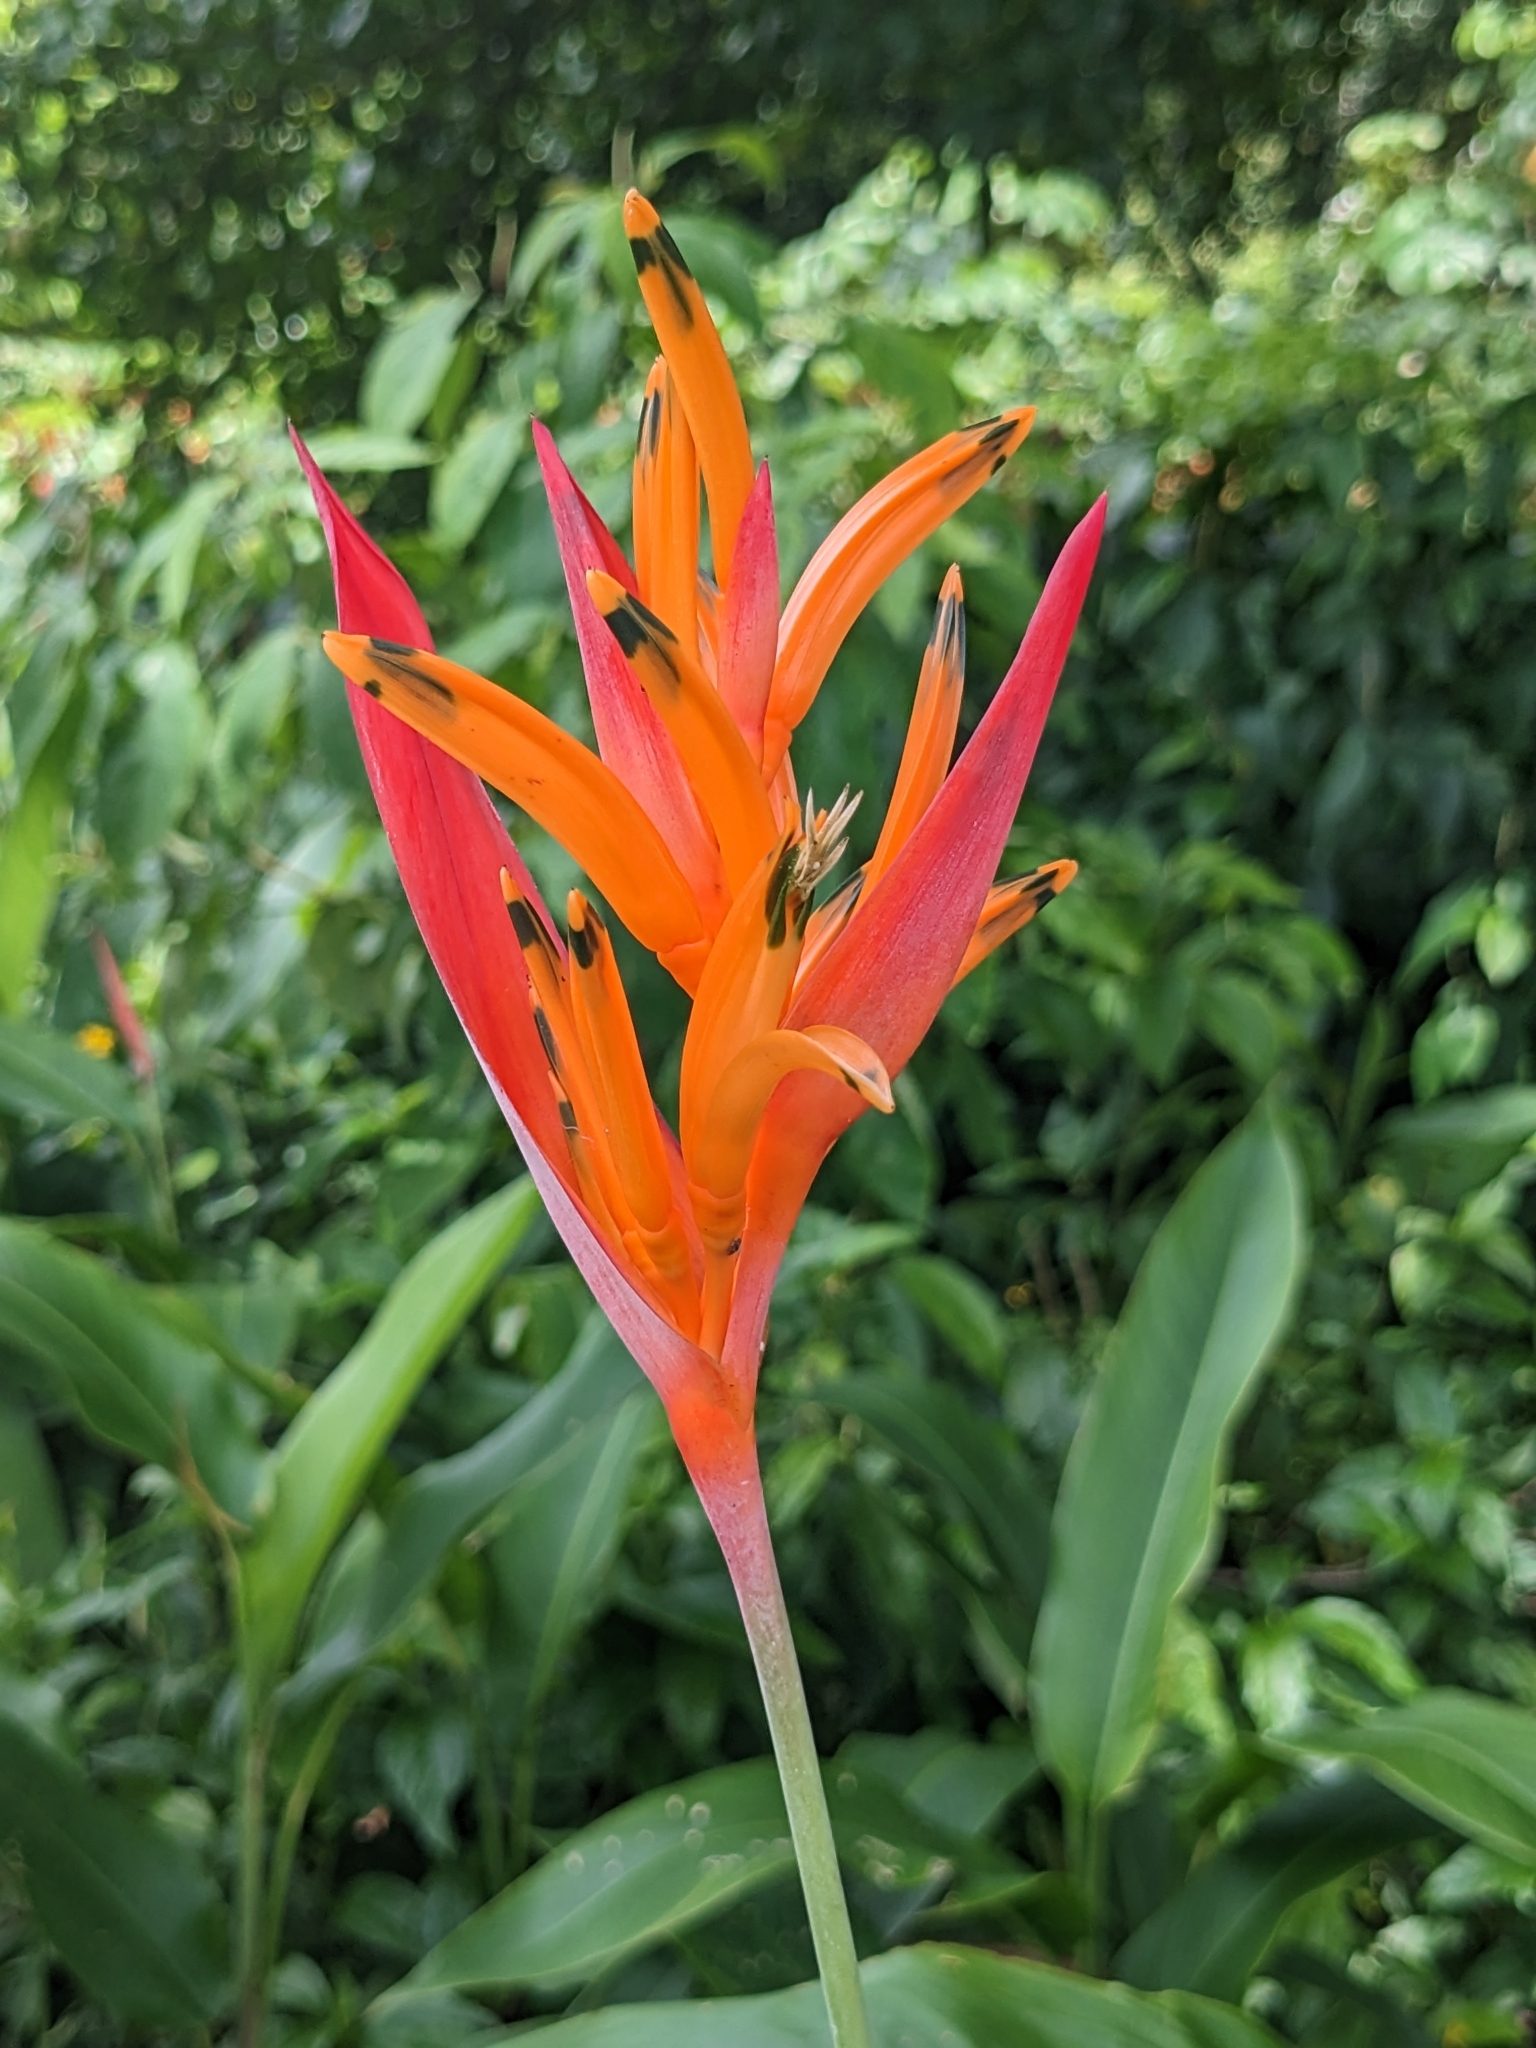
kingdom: Plantae
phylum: Tracheophyta
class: Liliopsida
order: Zingiberales
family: Heliconiaceae
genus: Heliconia
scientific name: Heliconia psittacorum
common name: Parrot's-flower
